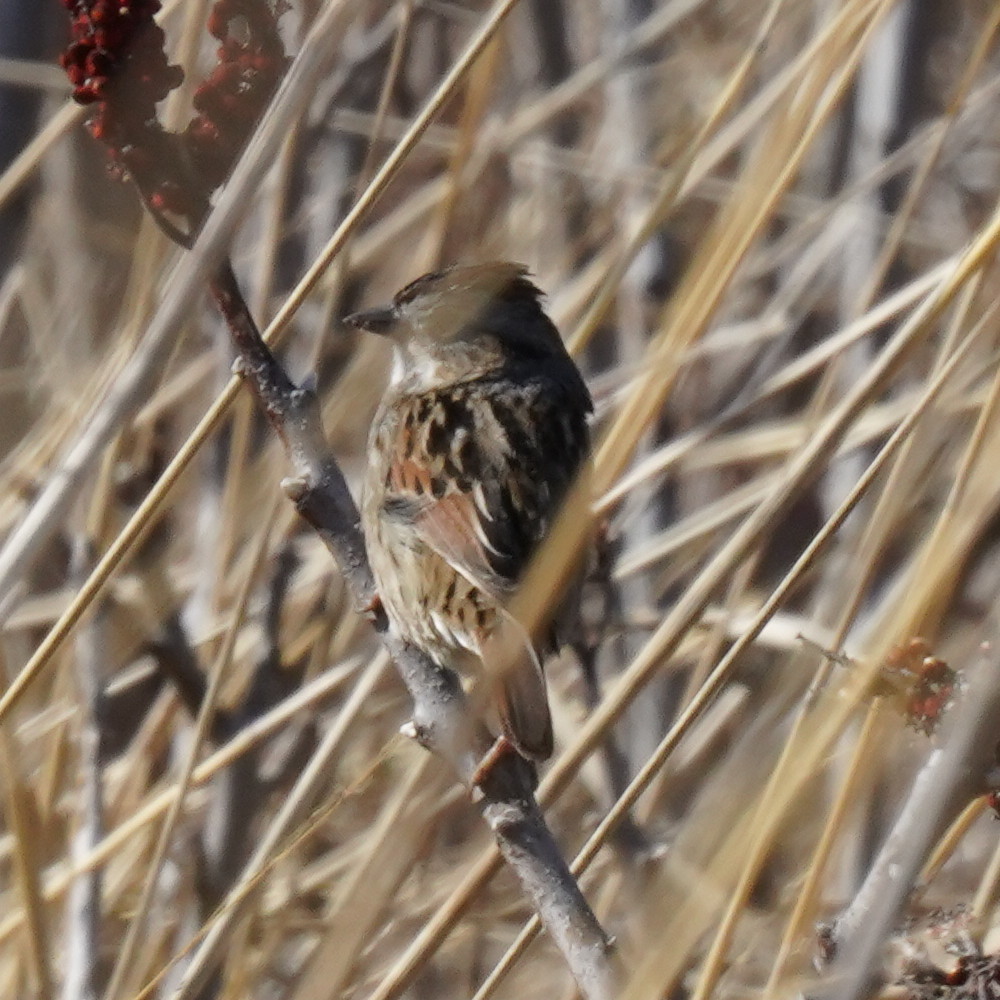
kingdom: Animalia
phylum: Chordata
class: Aves
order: Passeriformes
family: Passerellidae
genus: Melospiza
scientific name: Melospiza georgiana
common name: Swamp sparrow
